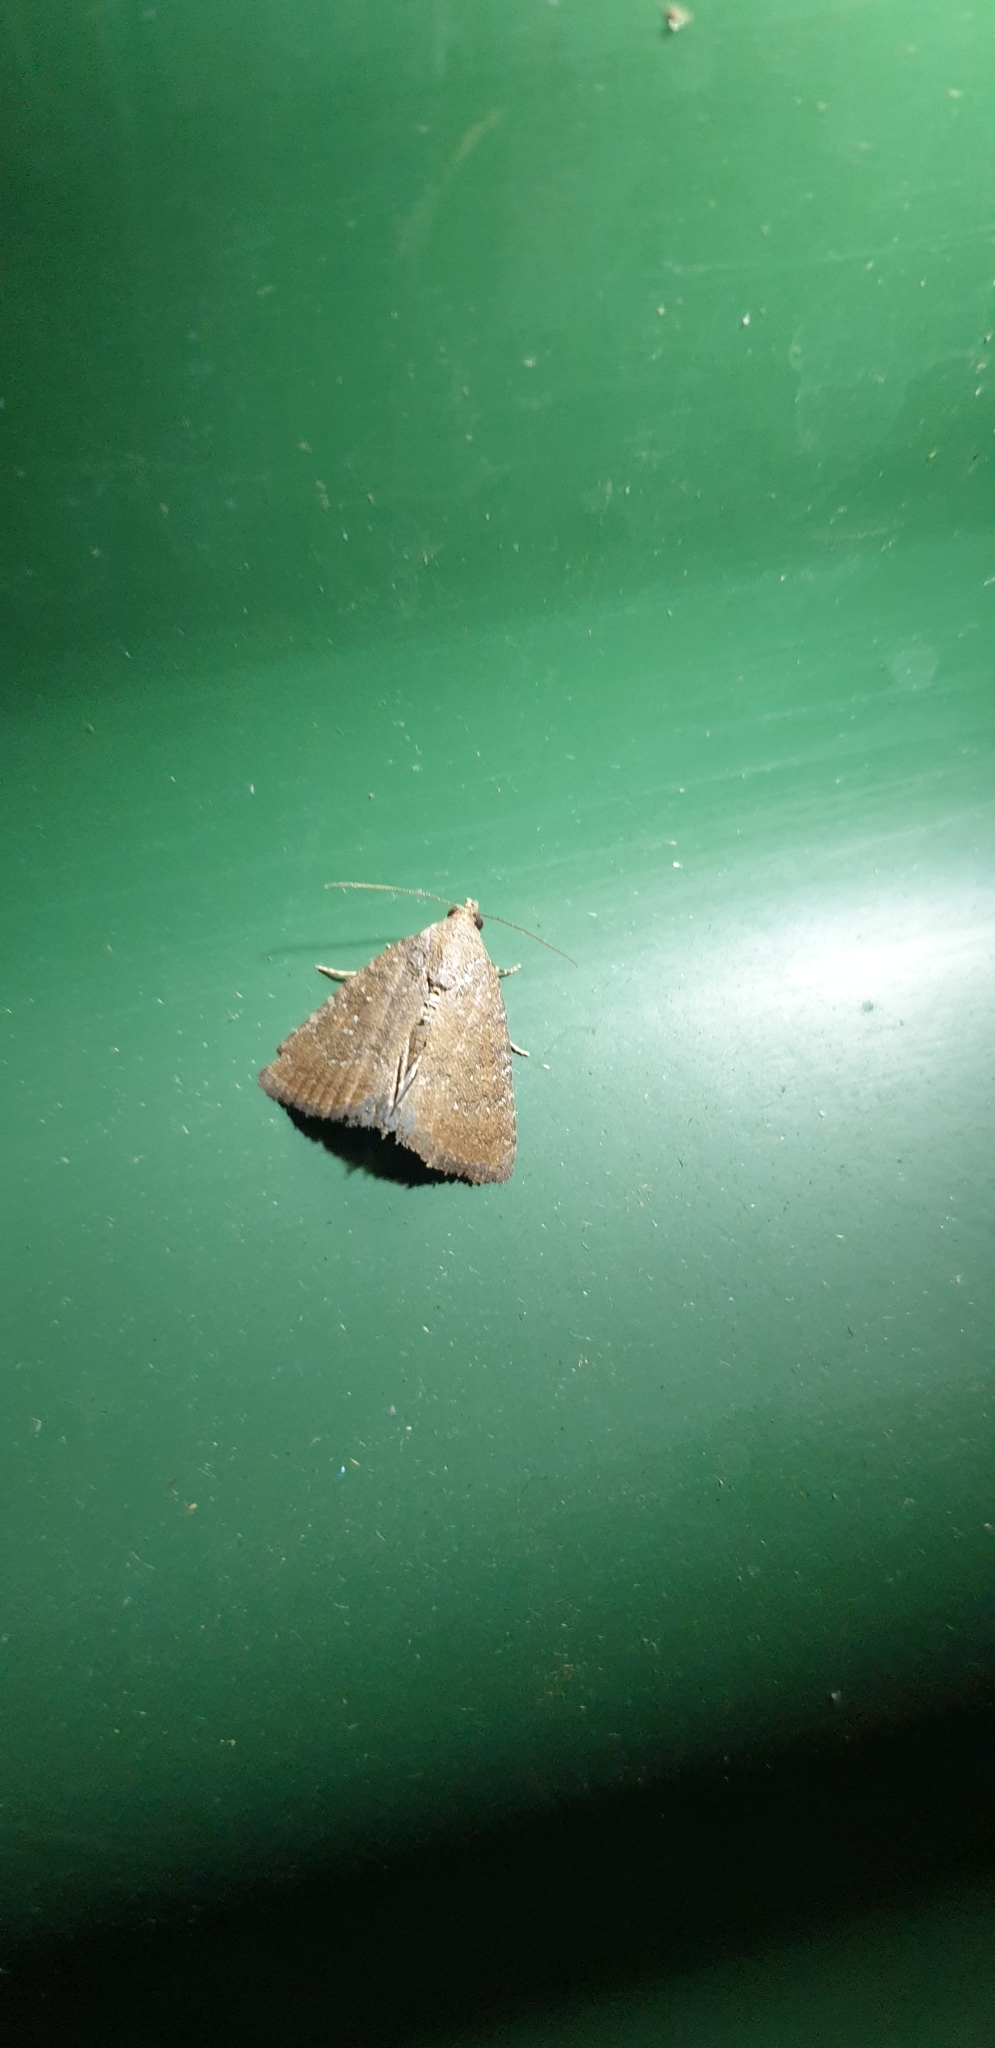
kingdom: Animalia
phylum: Arthropoda
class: Insecta
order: Lepidoptera
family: Noctuidae
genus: Amyna
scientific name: Amyna natalis
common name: Iiima moth
